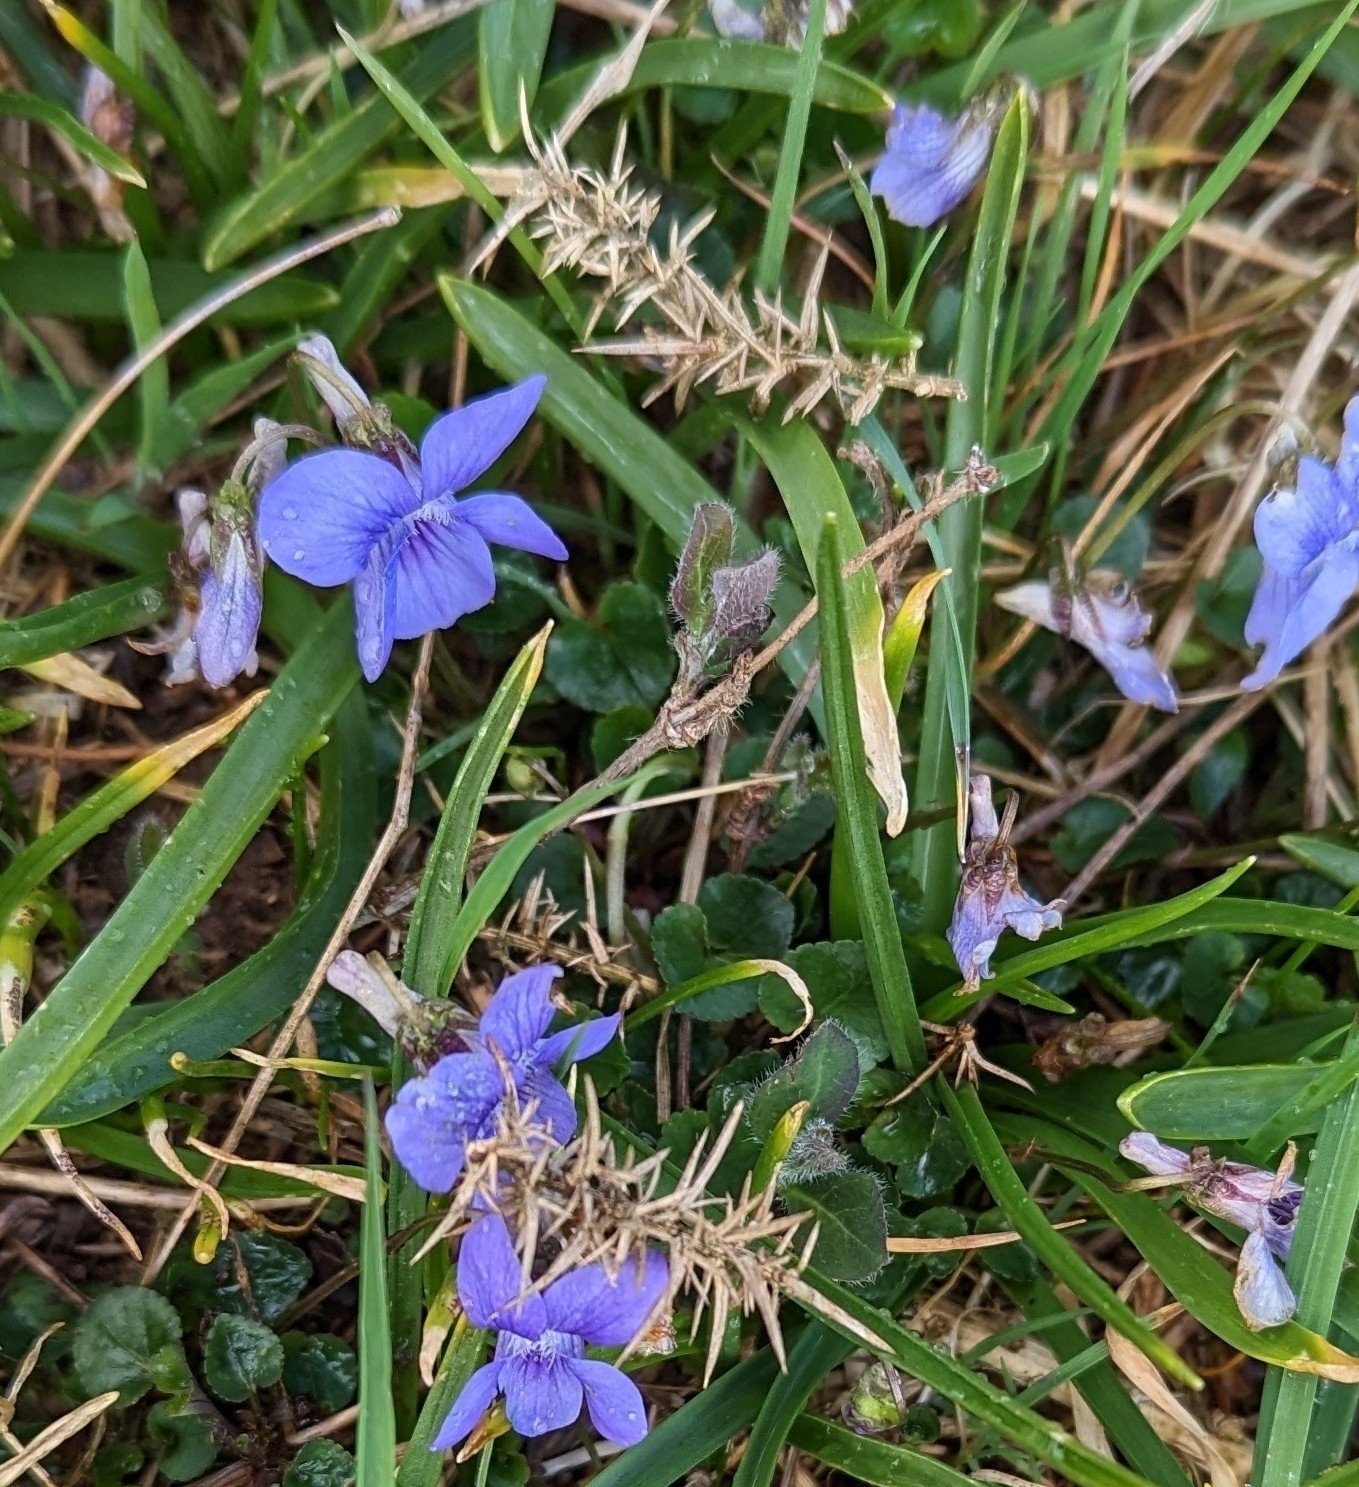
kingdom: Plantae
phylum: Tracheophyta
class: Magnoliopsida
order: Malpighiales
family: Violaceae
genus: Viola
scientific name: Viola riviniana
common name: Common dog-violet
